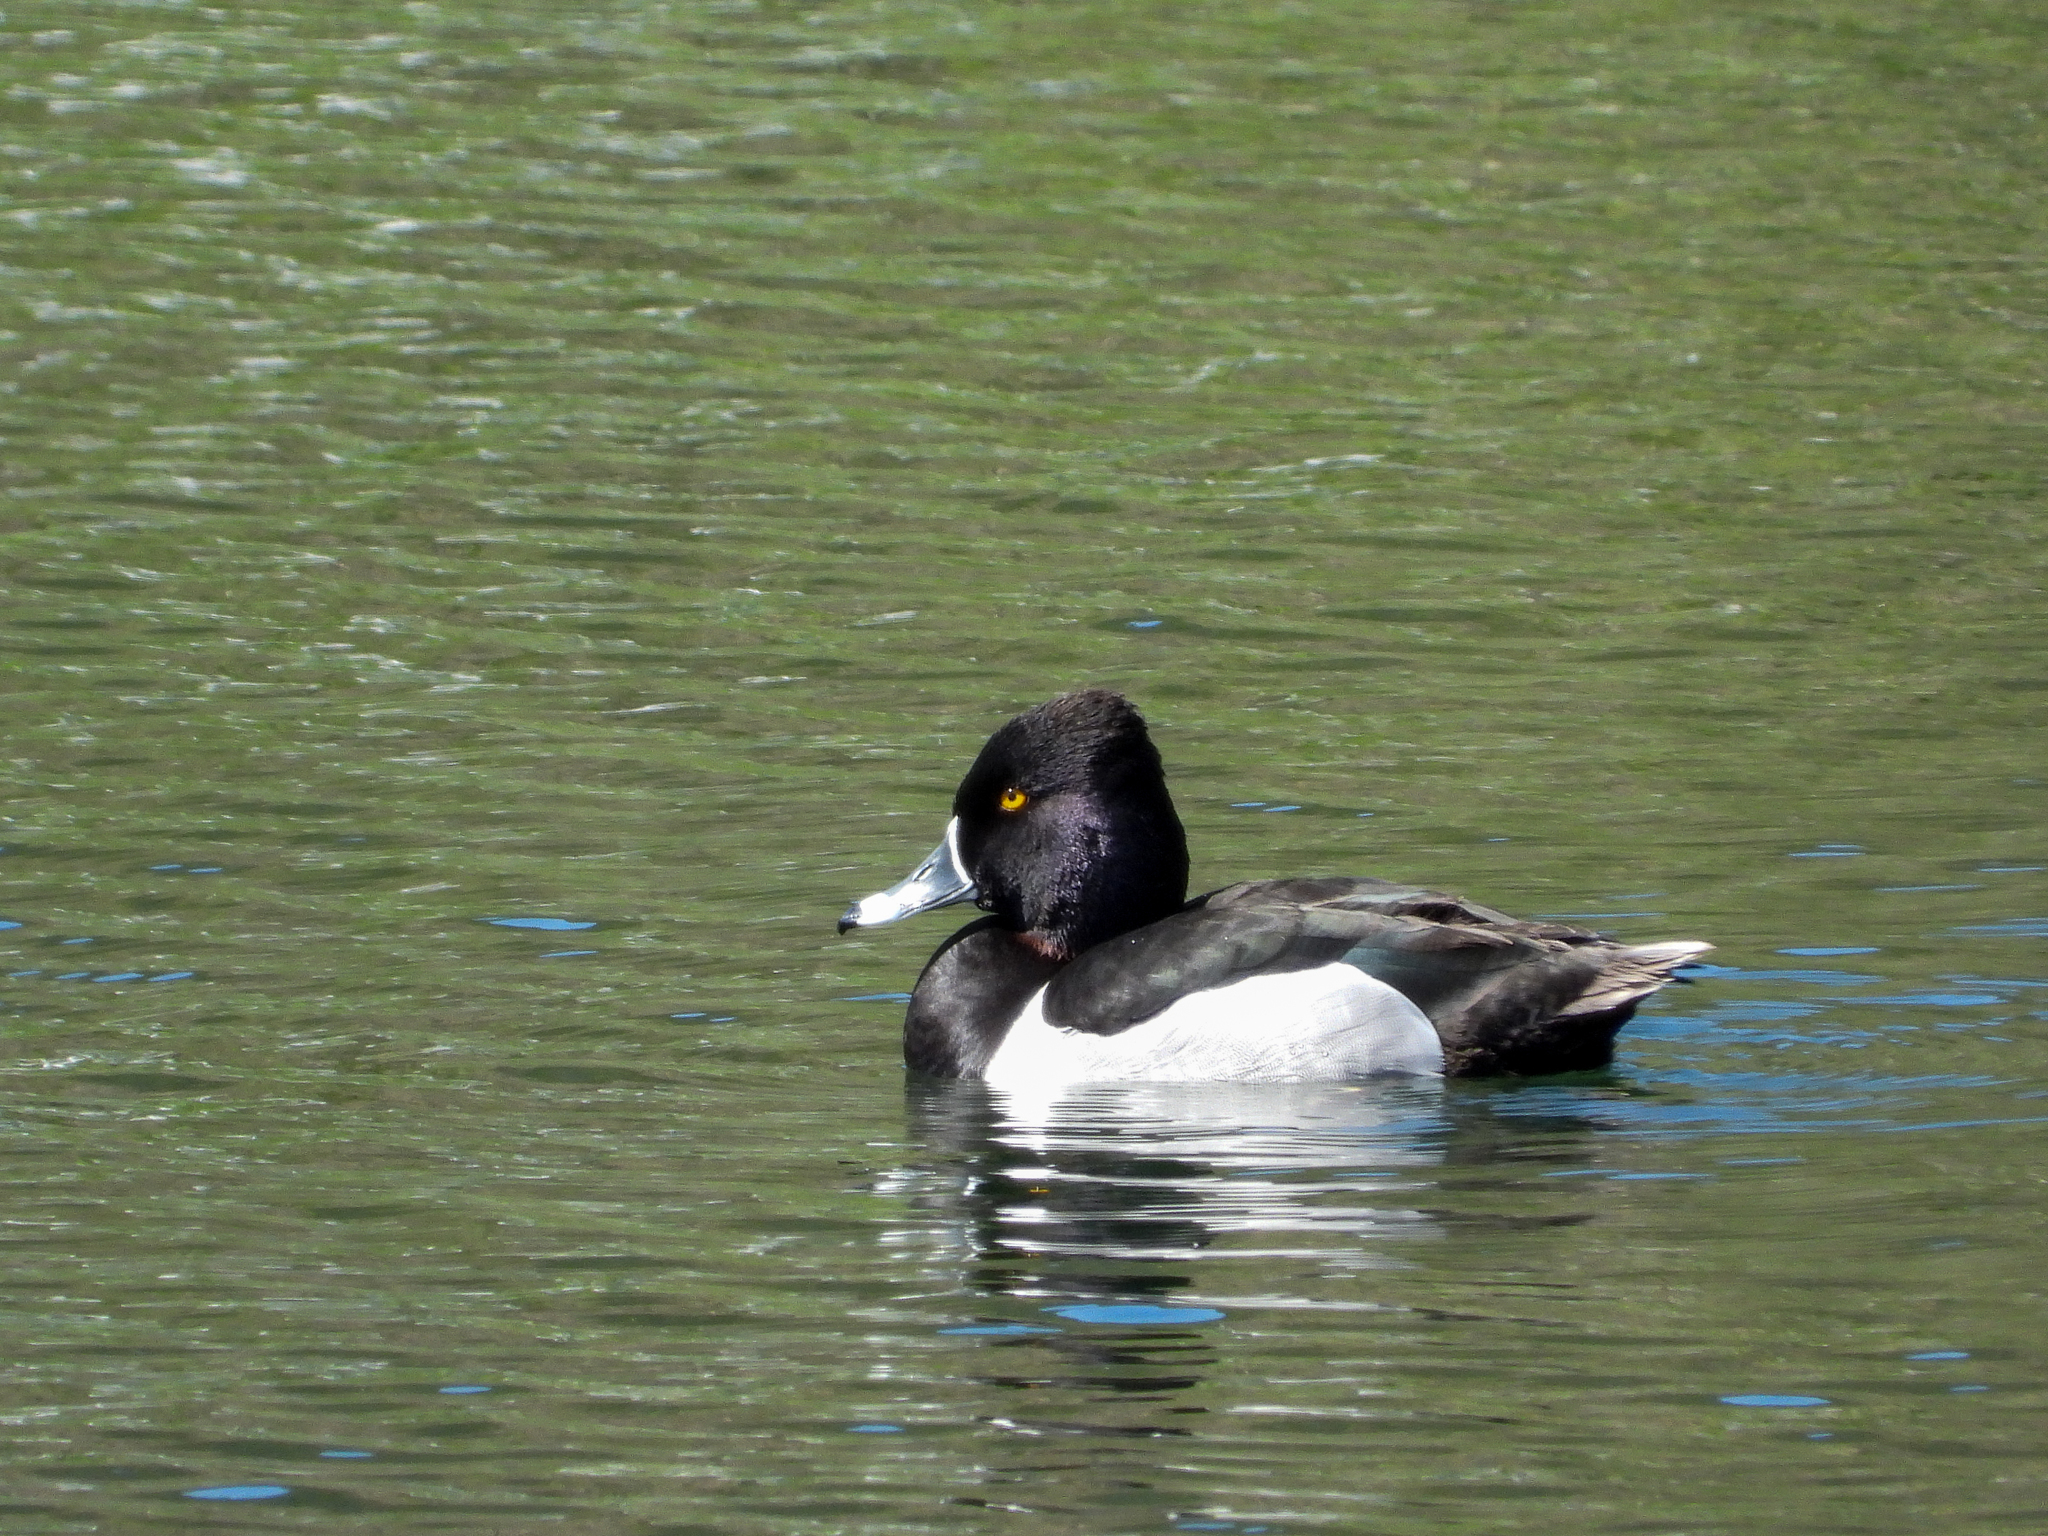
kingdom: Animalia
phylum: Chordata
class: Aves
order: Anseriformes
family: Anatidae
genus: Aythya
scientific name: Aythya collaris
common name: Ring-necked duck
